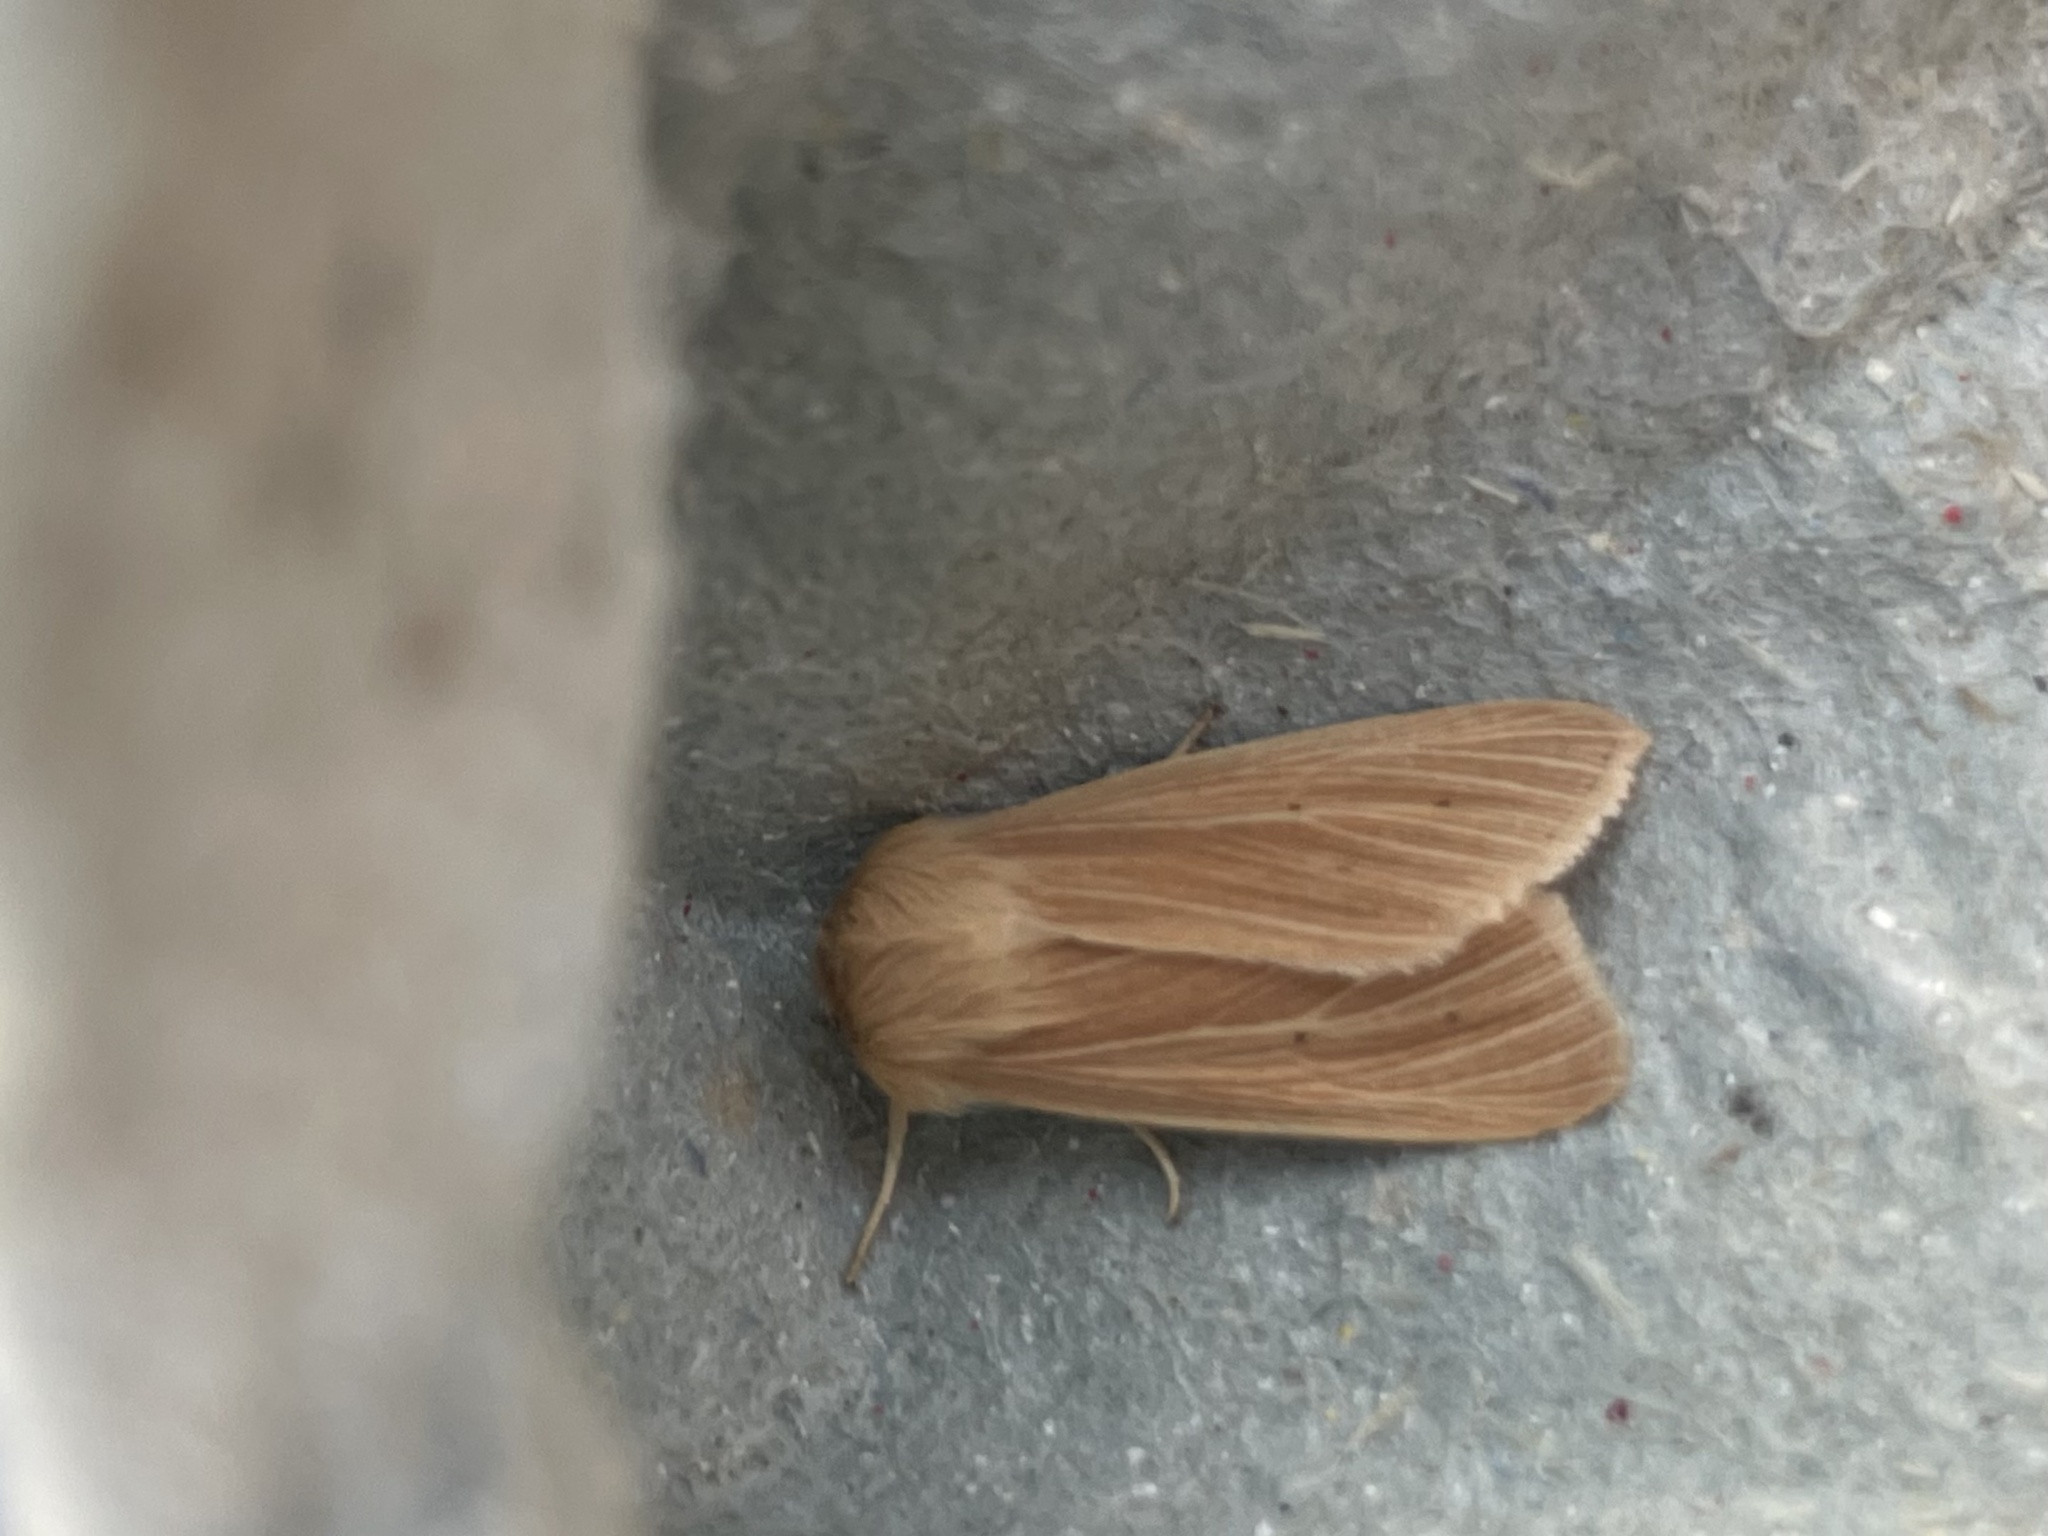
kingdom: Animalia
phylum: Arthropoda
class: Insecta
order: Lepidoptera
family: Noctuidae
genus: Mythimna
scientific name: Mythimna pallens
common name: Common wainscot
